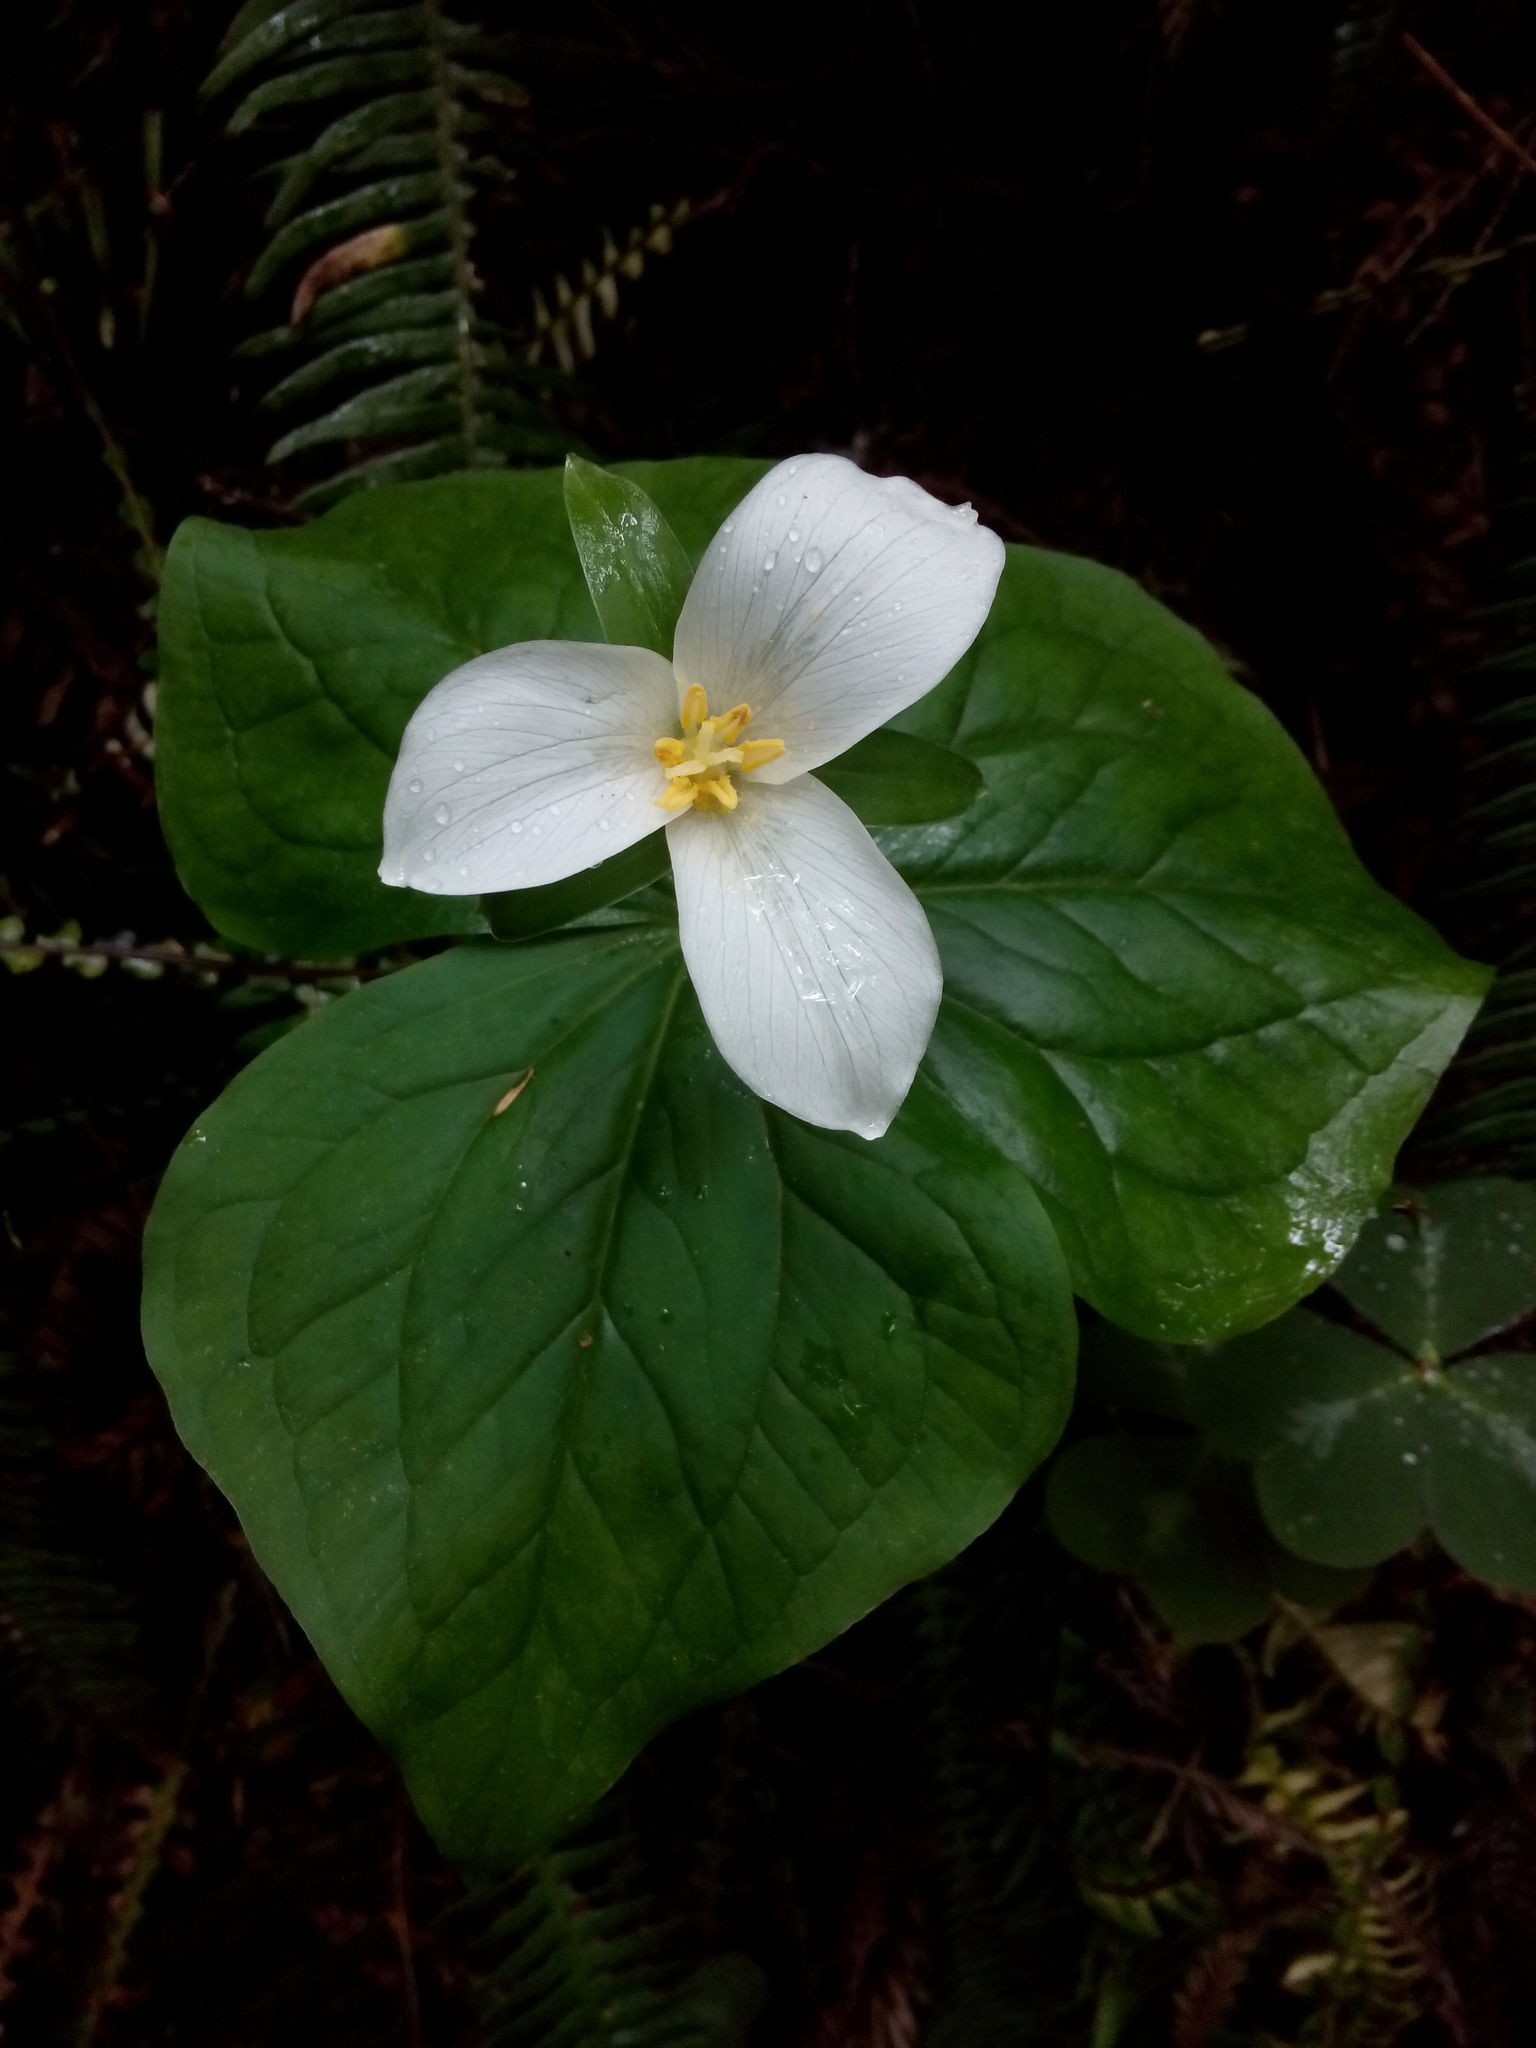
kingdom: Plantae
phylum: Tracheophyta
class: Liliopsida
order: Liliales
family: Melanthiaceae
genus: Trillium
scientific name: Trillium ovatum
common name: Pacific trillium
